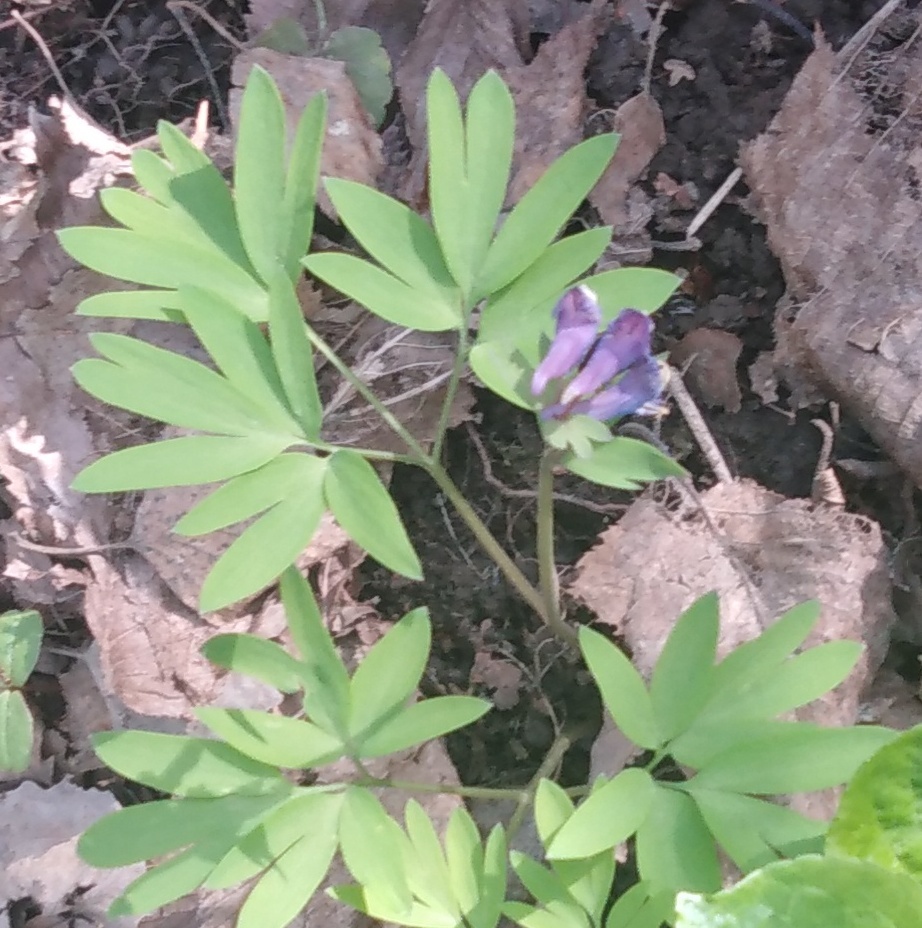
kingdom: Plantae
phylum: Tracheophyta
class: Magnoliopsida
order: Ranunculales
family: Papaveraceae
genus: Corydalis
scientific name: Corydalis solida
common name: Bird-in-a-bush
